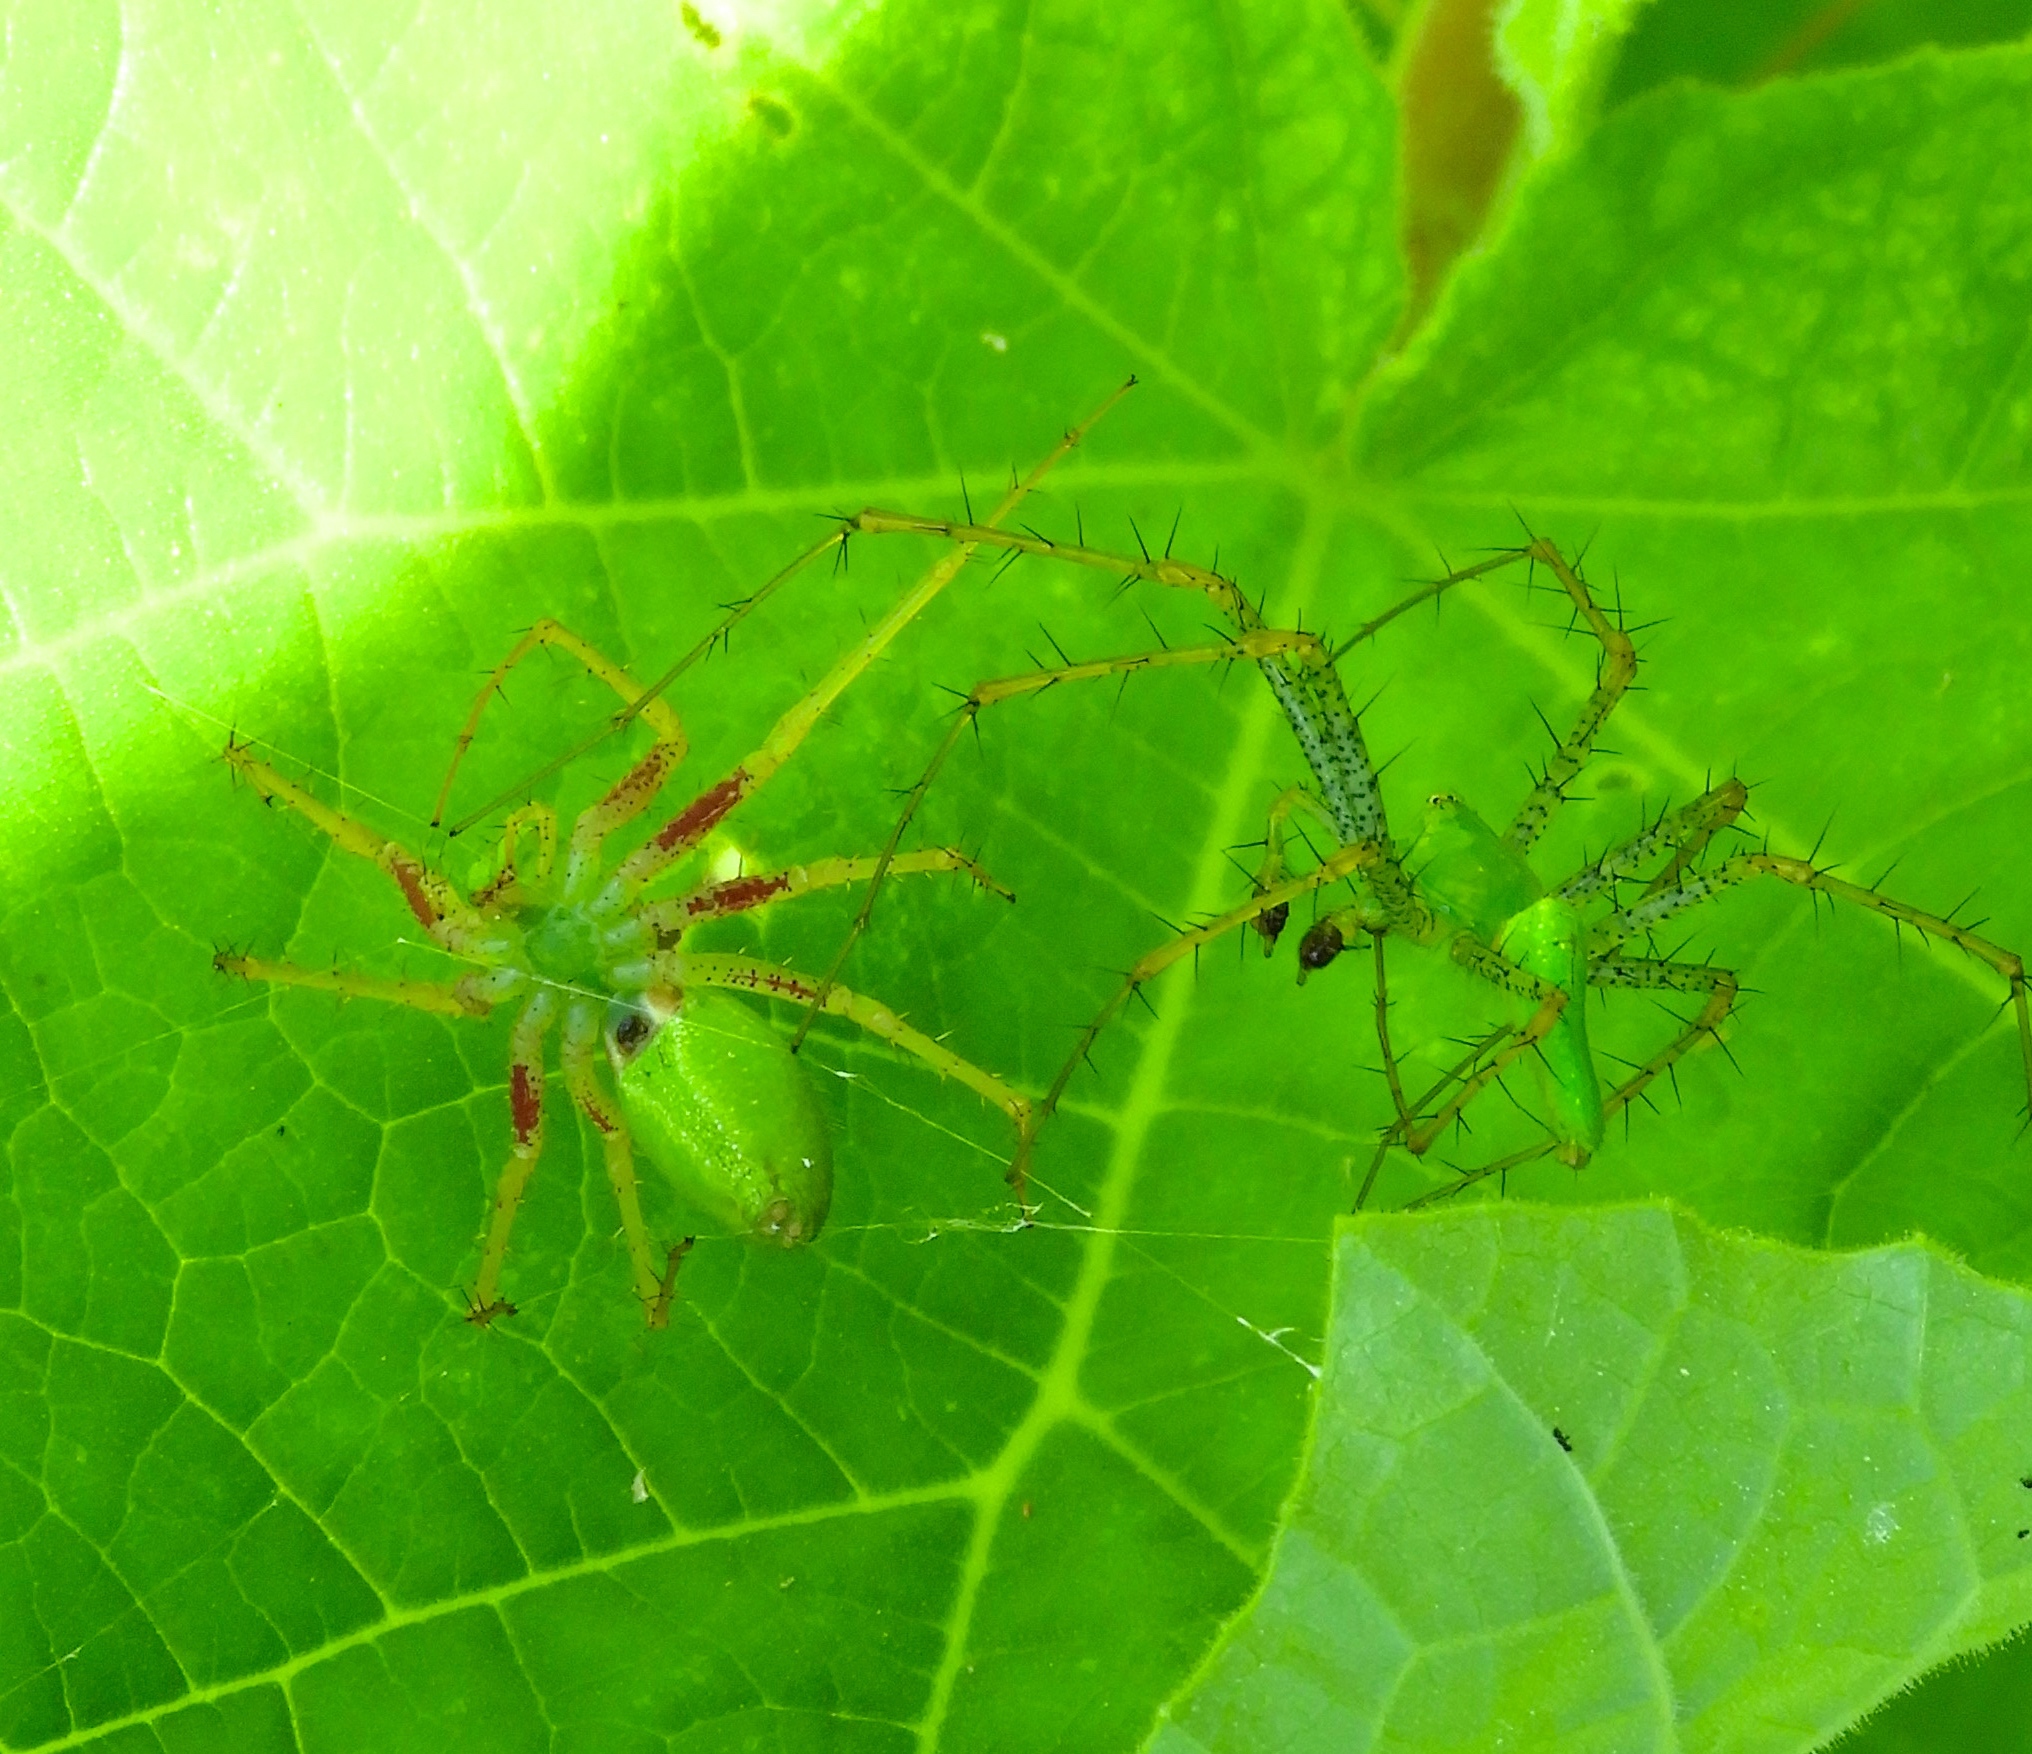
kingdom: Animalia
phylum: Arthropoda
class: Arachnida
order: Araneae
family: Oxyopidae
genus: Peucetia
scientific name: Peucetia
